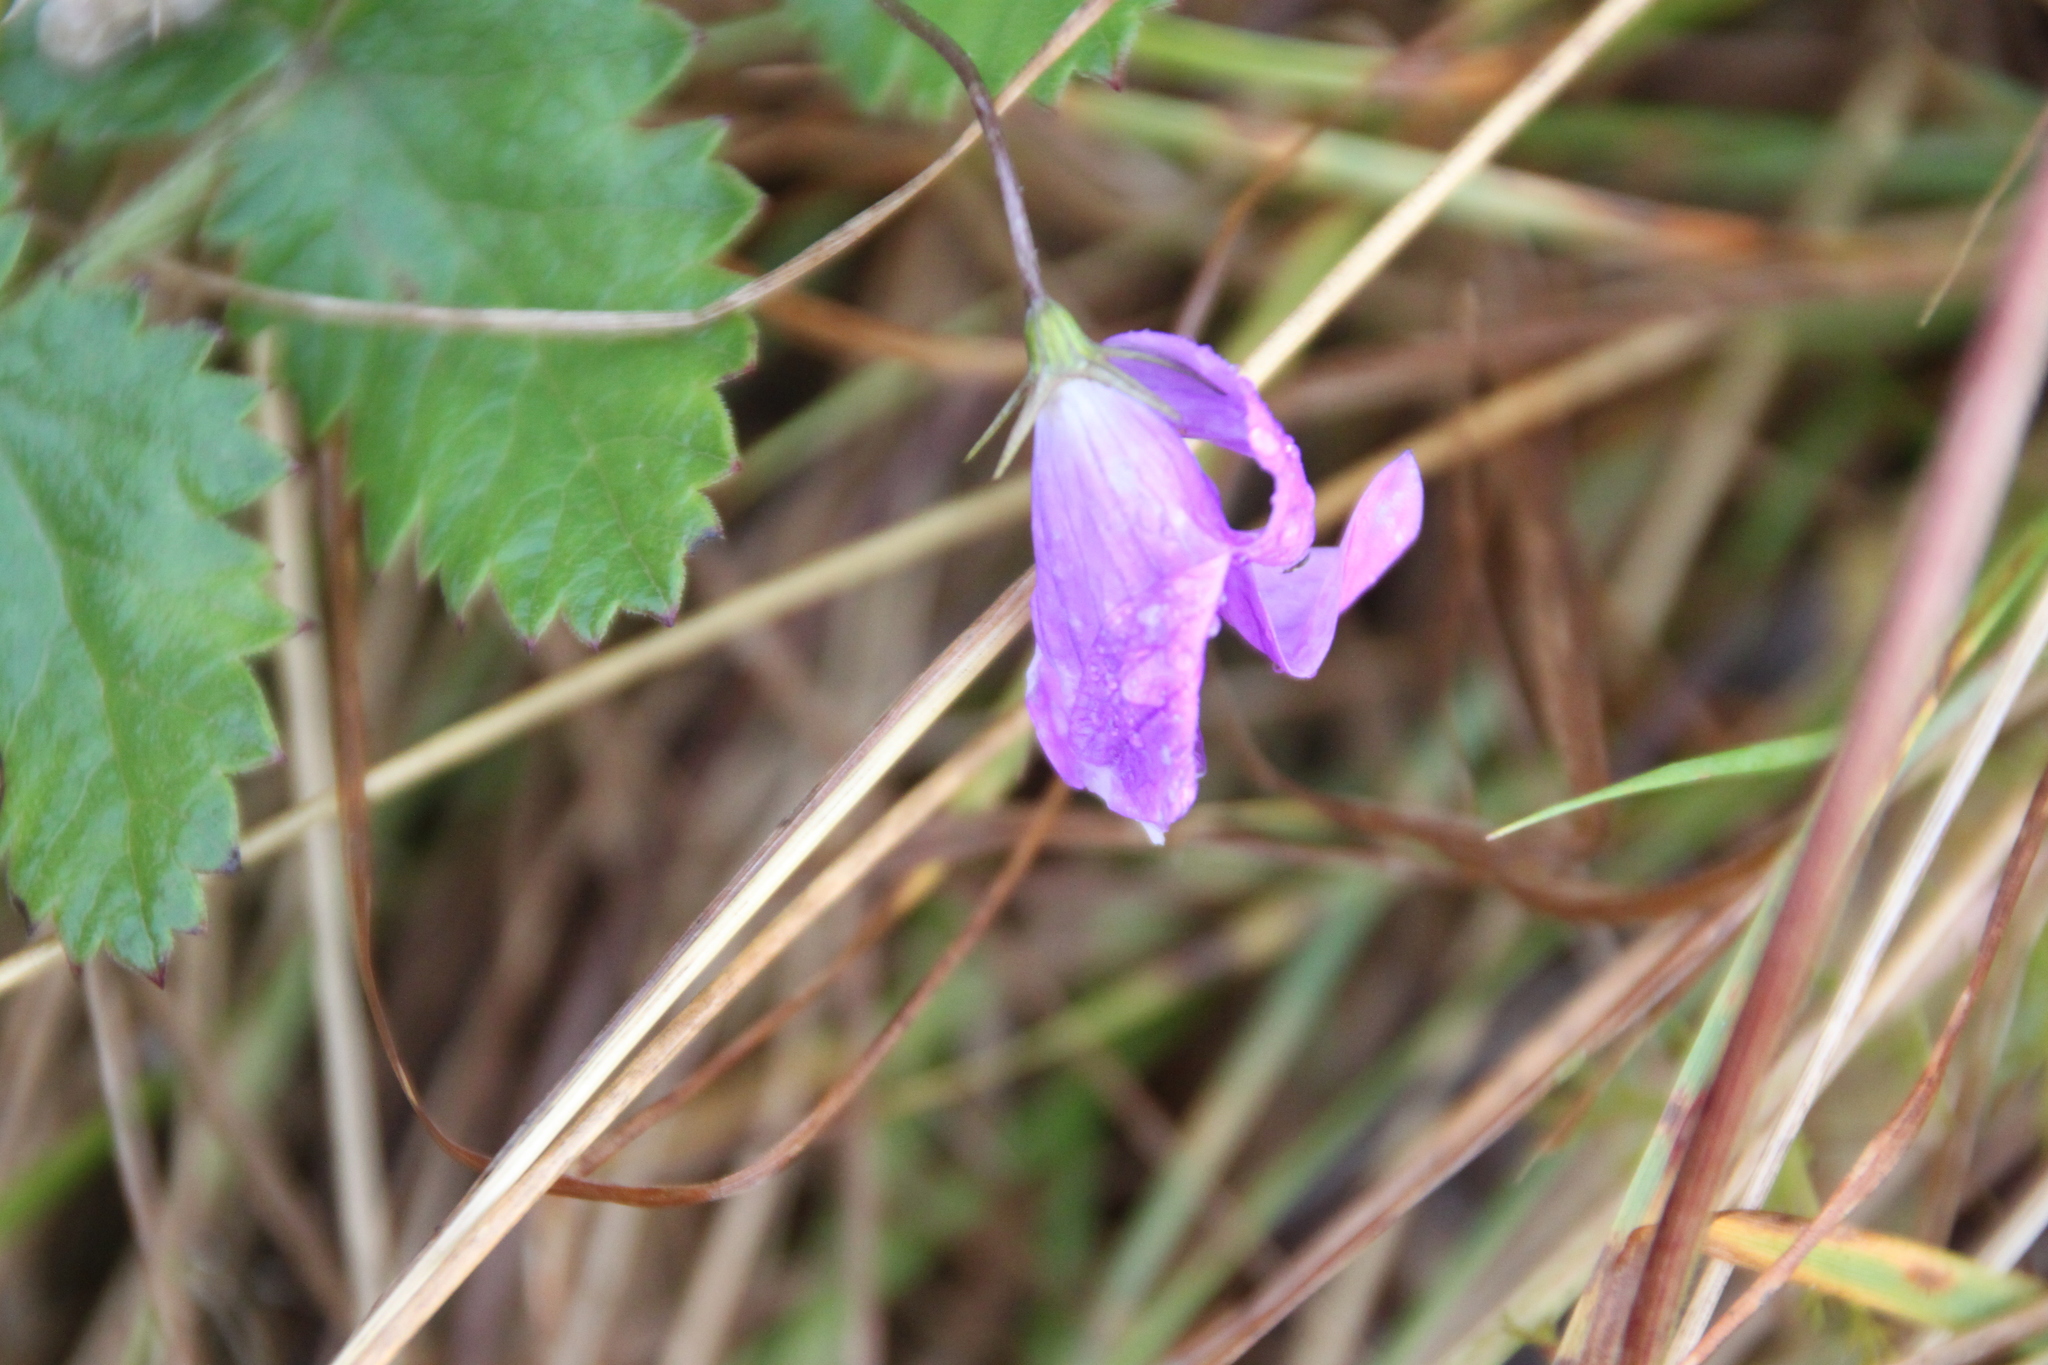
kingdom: Plantae
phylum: Tracheophyta
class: Magnoliopsida
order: Asterales
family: Campanulaceae
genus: Campanula
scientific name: Campanula patula
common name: Spreading bellflower
